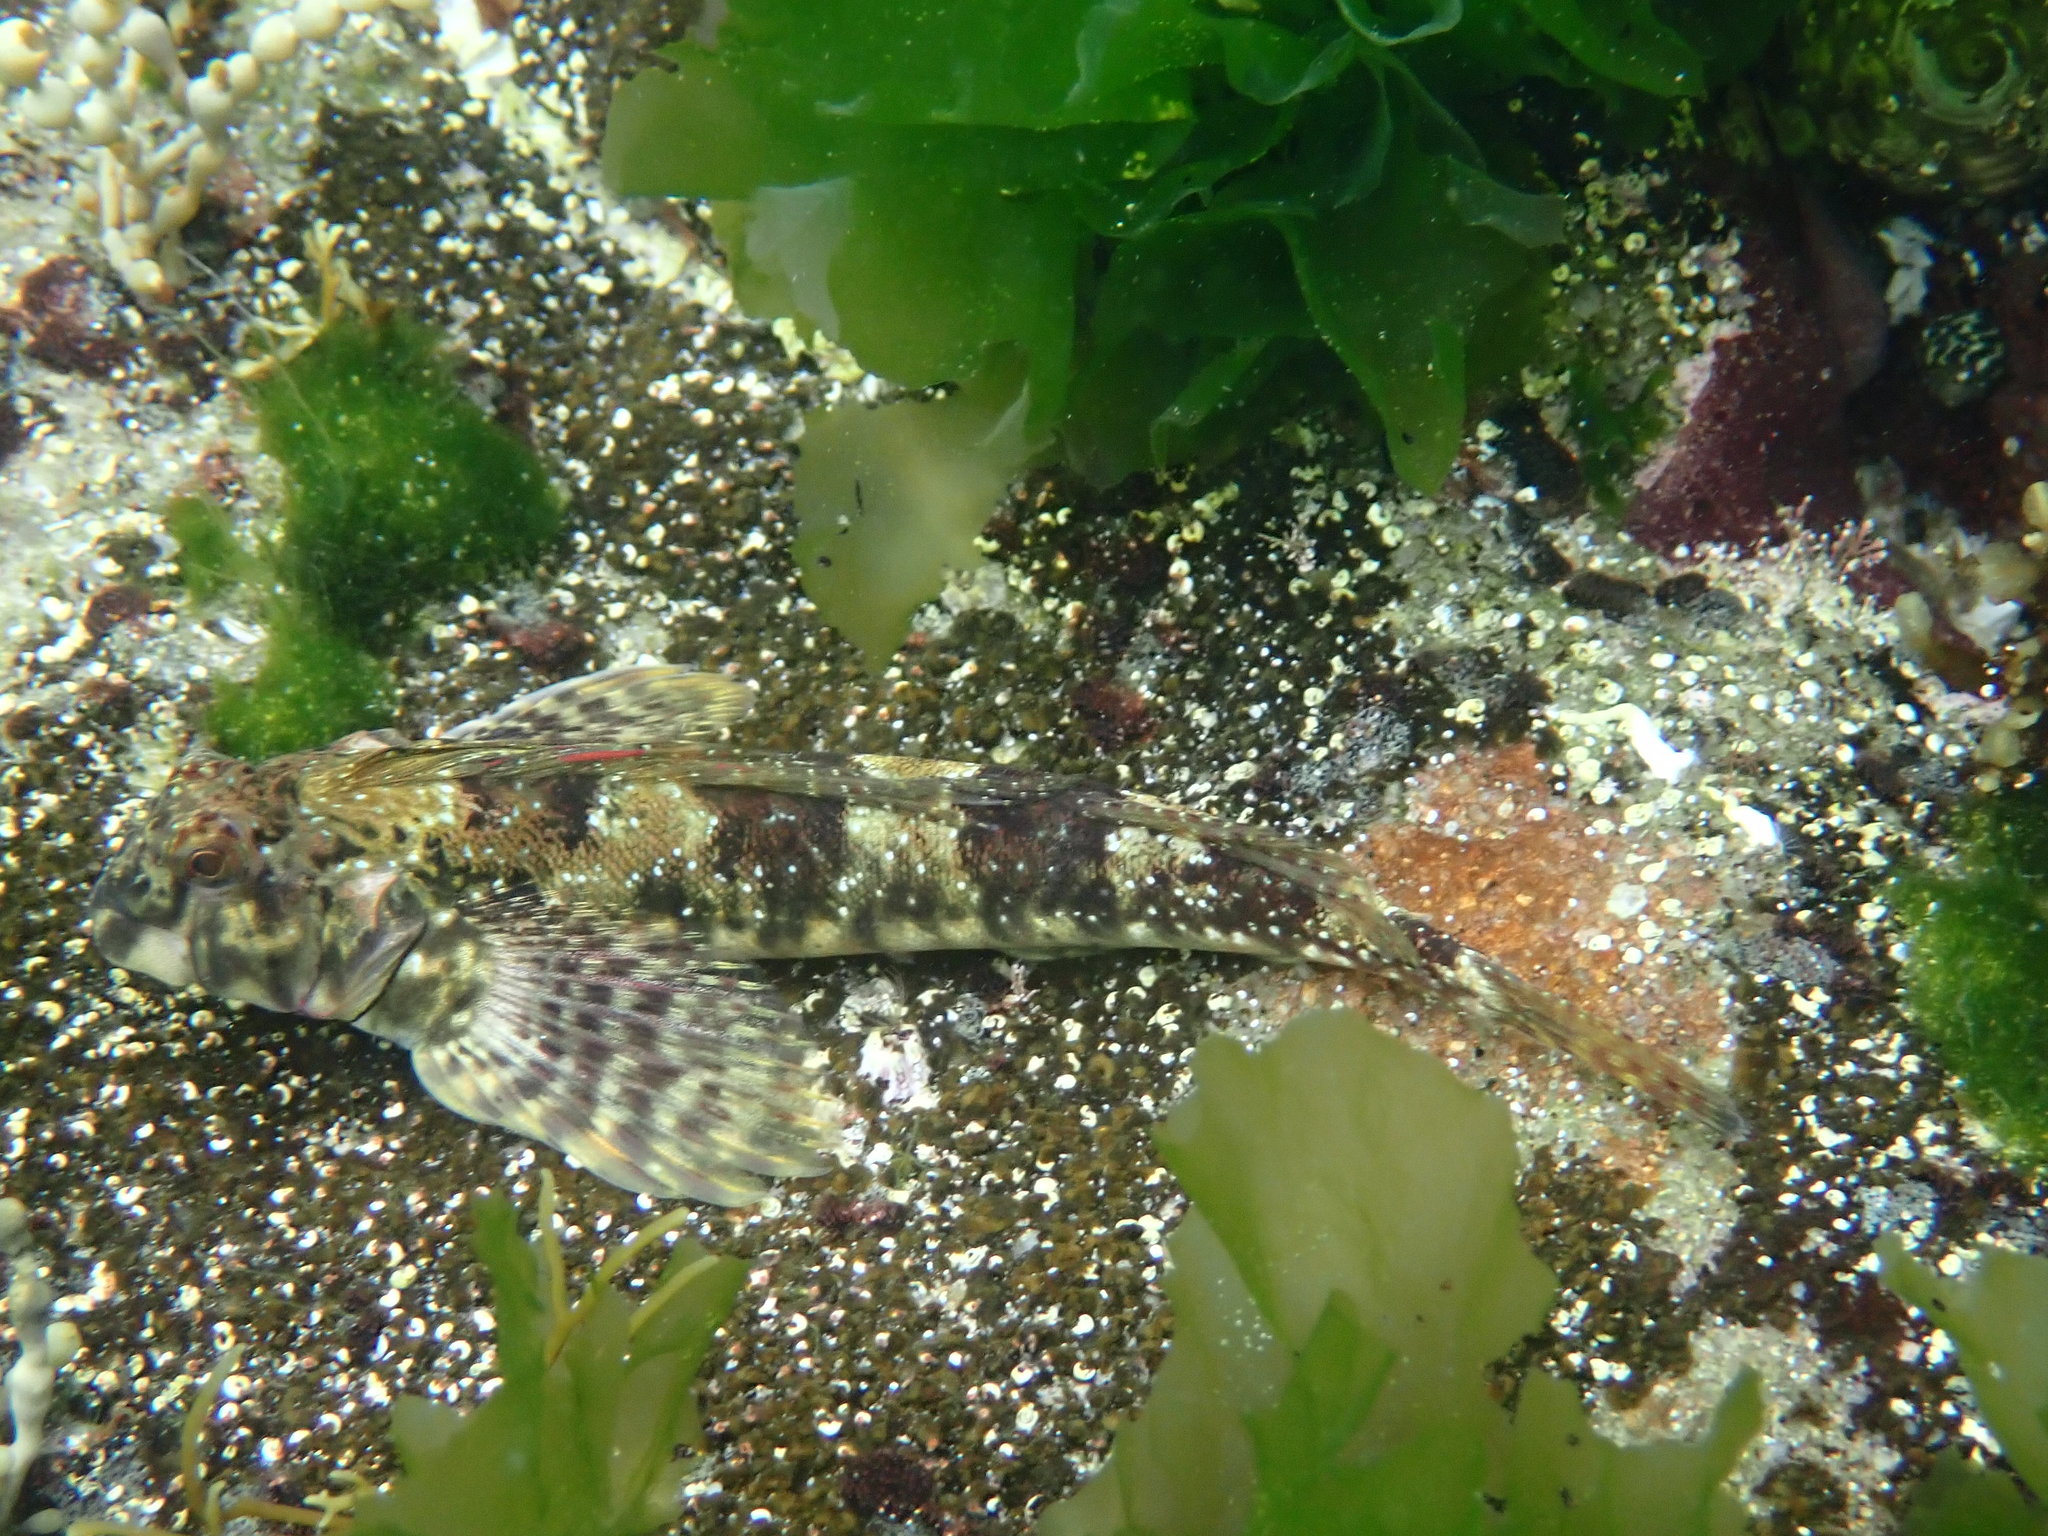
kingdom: Animalia
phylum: Chordata
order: Perciformes
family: Tripterygiidae
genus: Lepidoblennius
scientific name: Lepidoblennius haplodactylus
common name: Eastern jumping blenny
